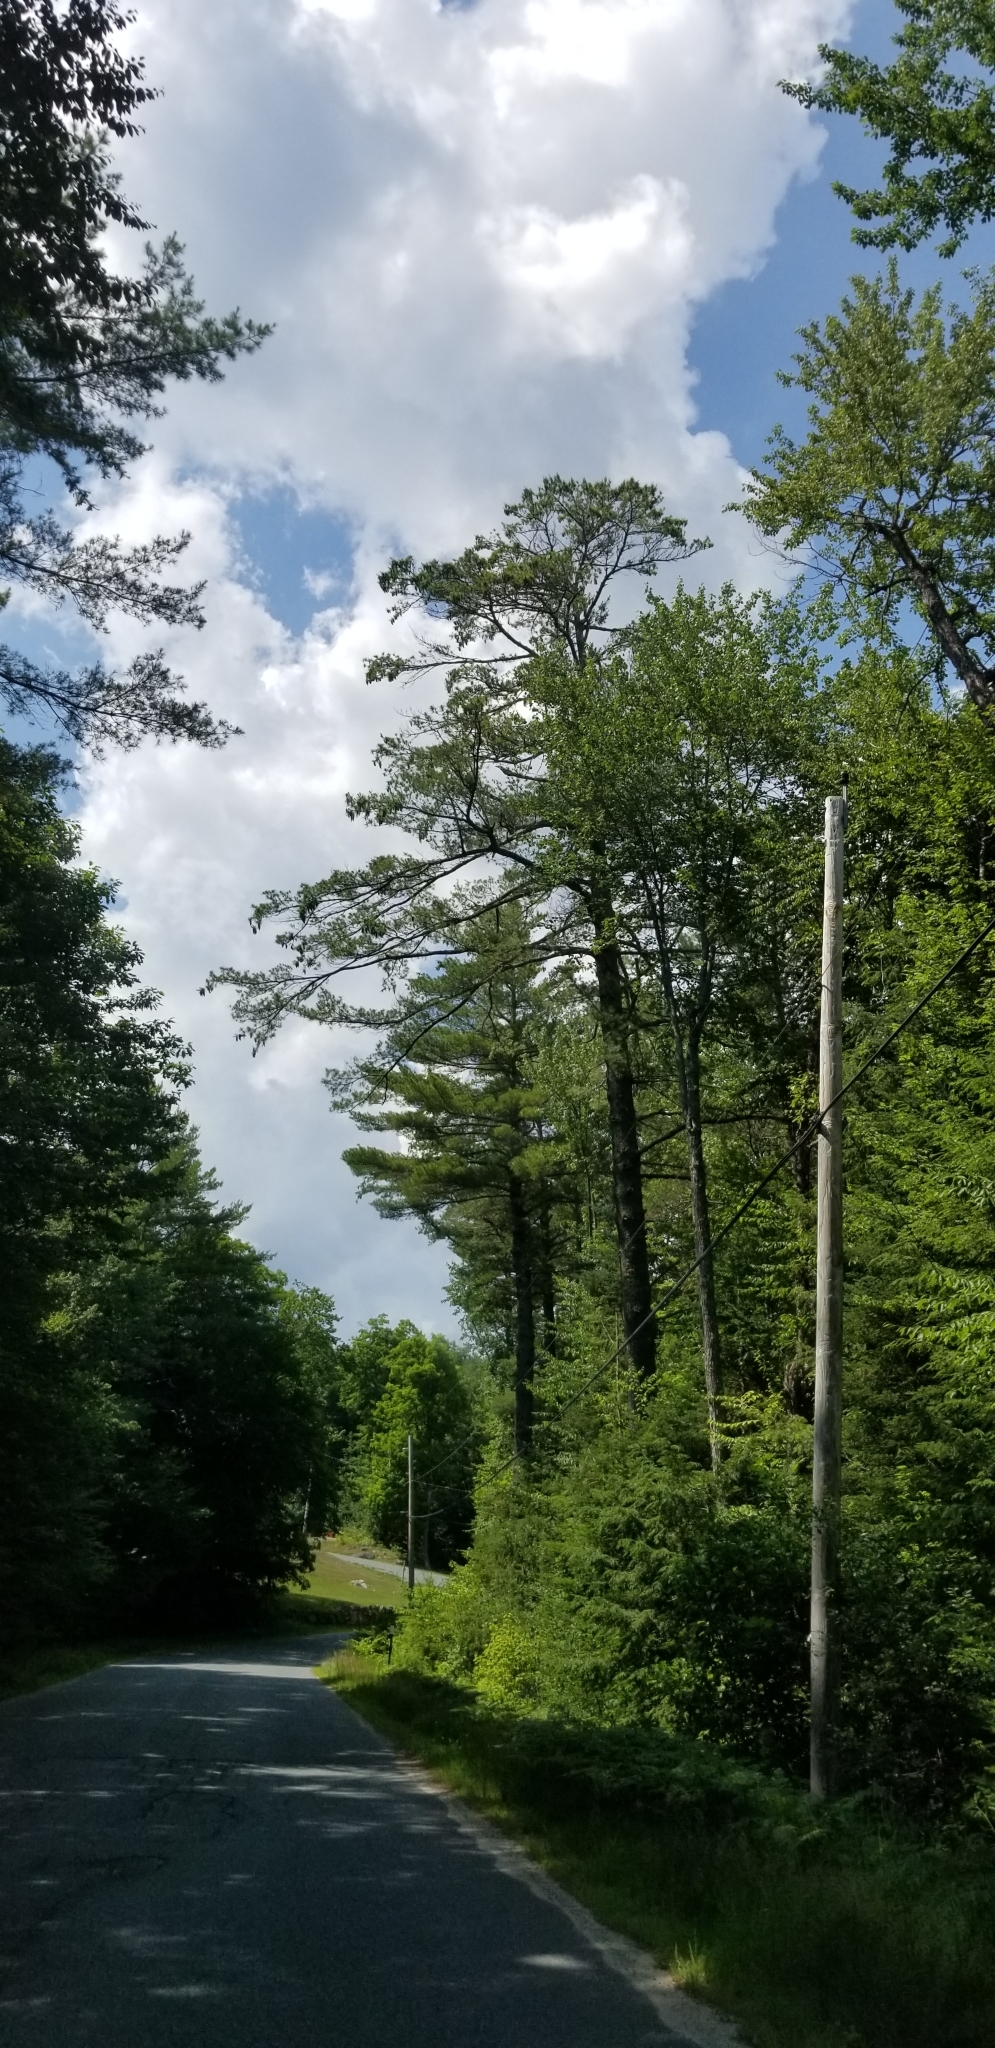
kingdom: Plantae
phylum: Tracheophyta
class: Pinopsida
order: Pinales
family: Pinaceae
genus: Pinus
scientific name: Pinus strobus
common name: Weymouth pine
